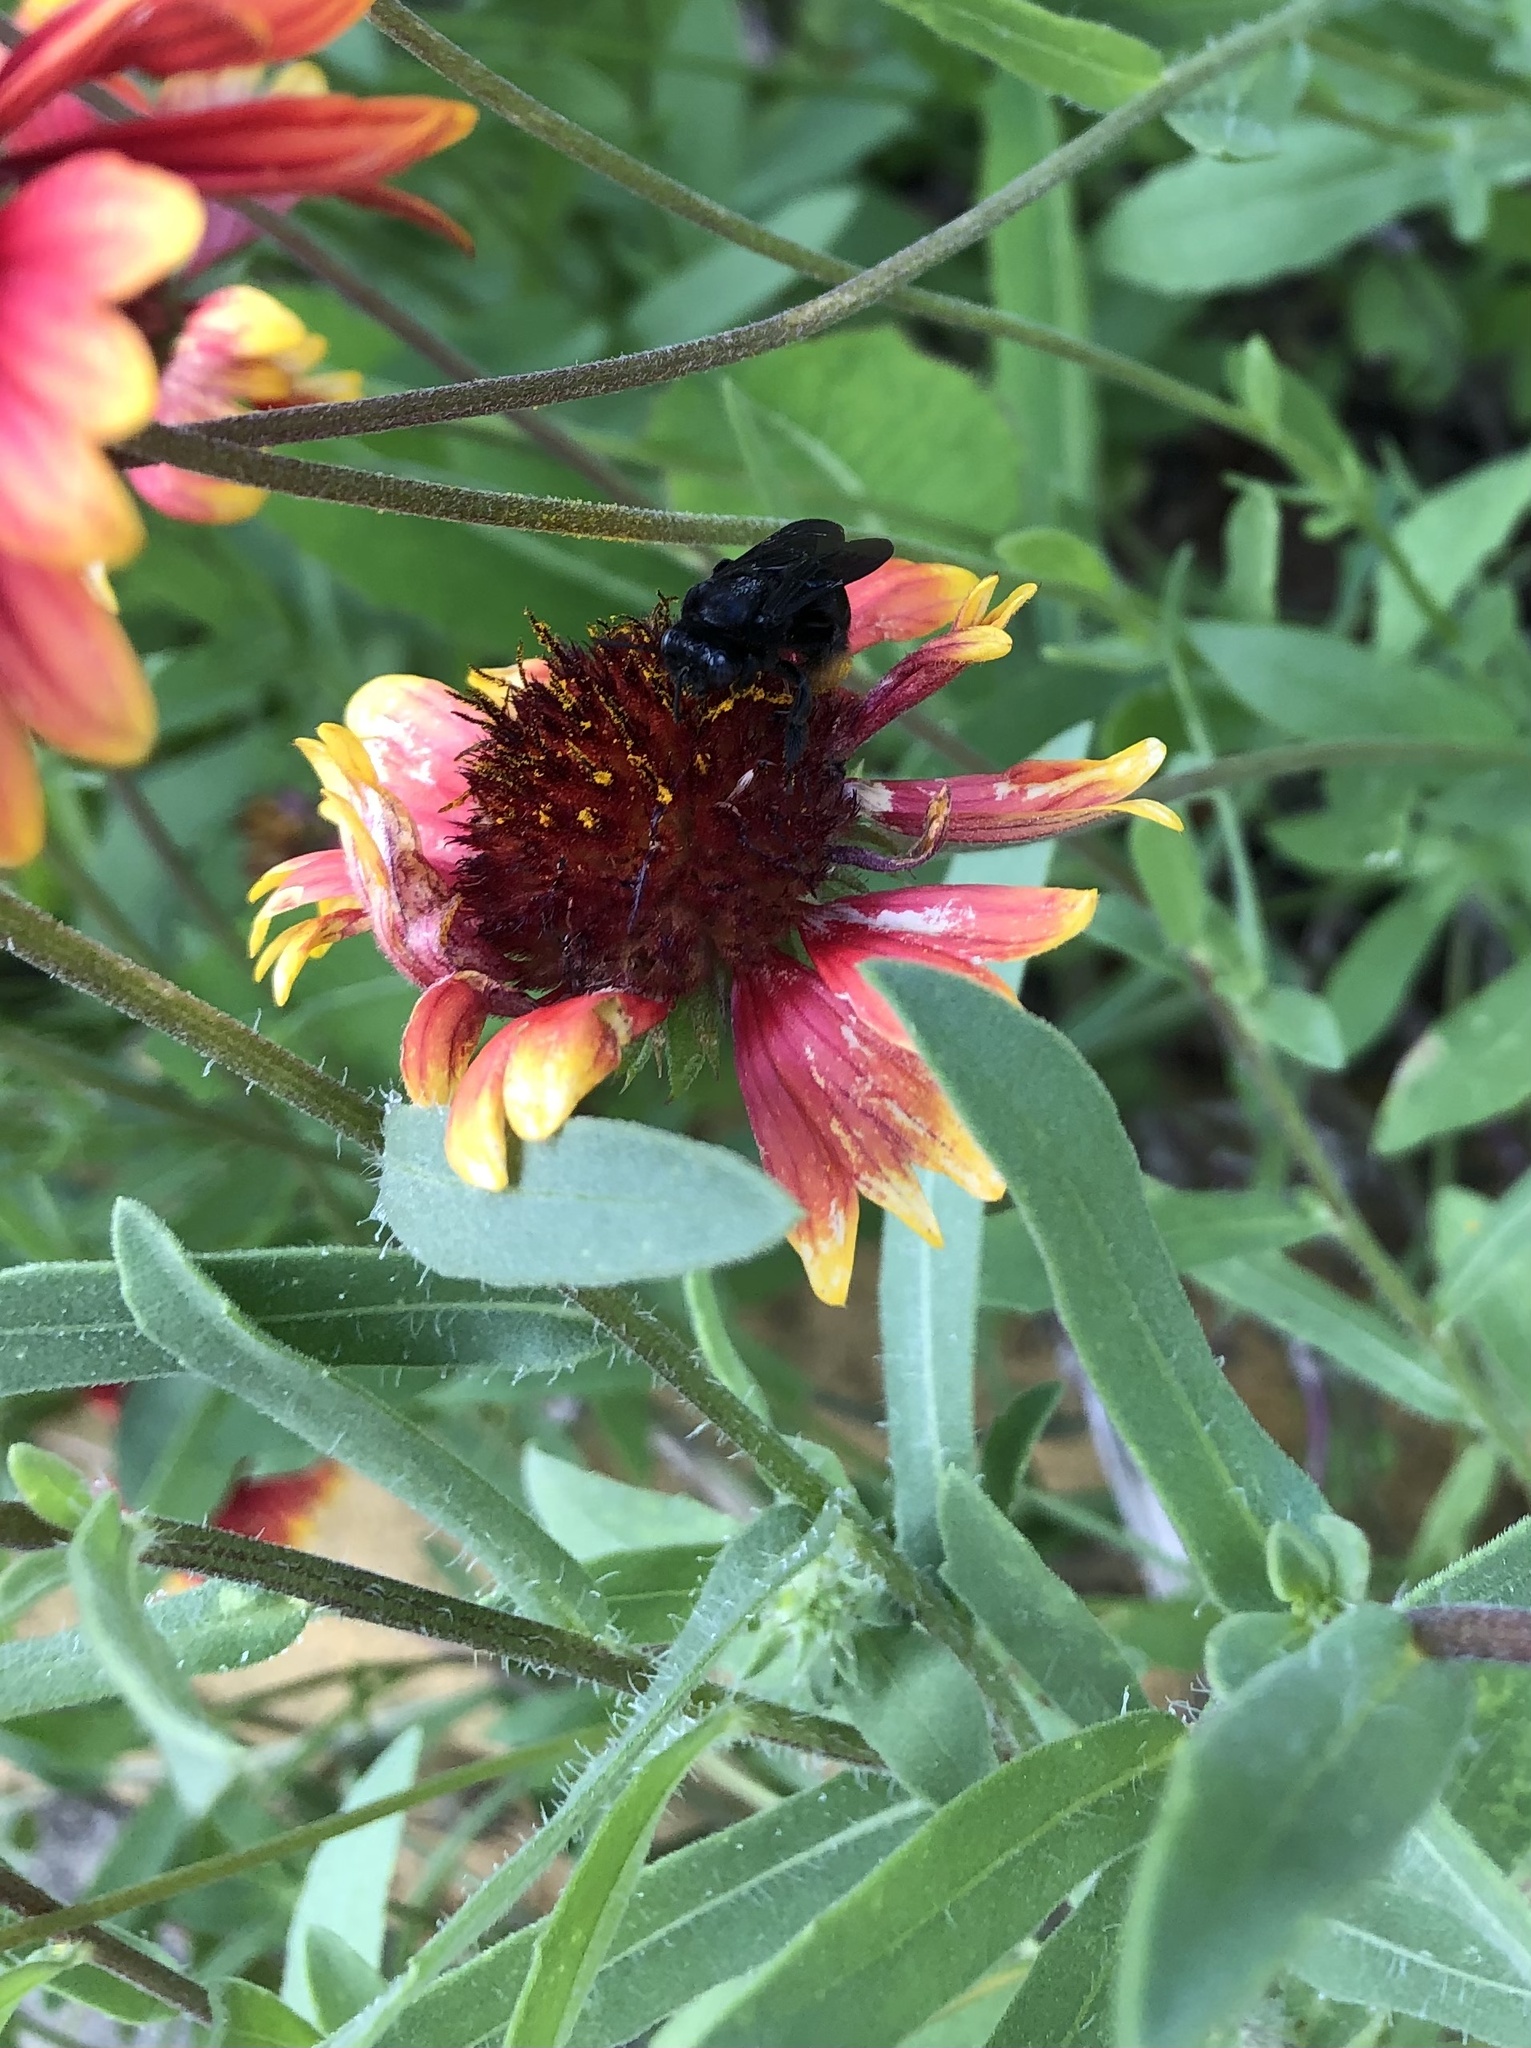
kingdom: Animalia
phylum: Arthropoda
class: Insecta
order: Hymenoptera
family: Apidae
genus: Melissodes
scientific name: Melissodes bimaculatus
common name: Two-spotted long-horned bee
